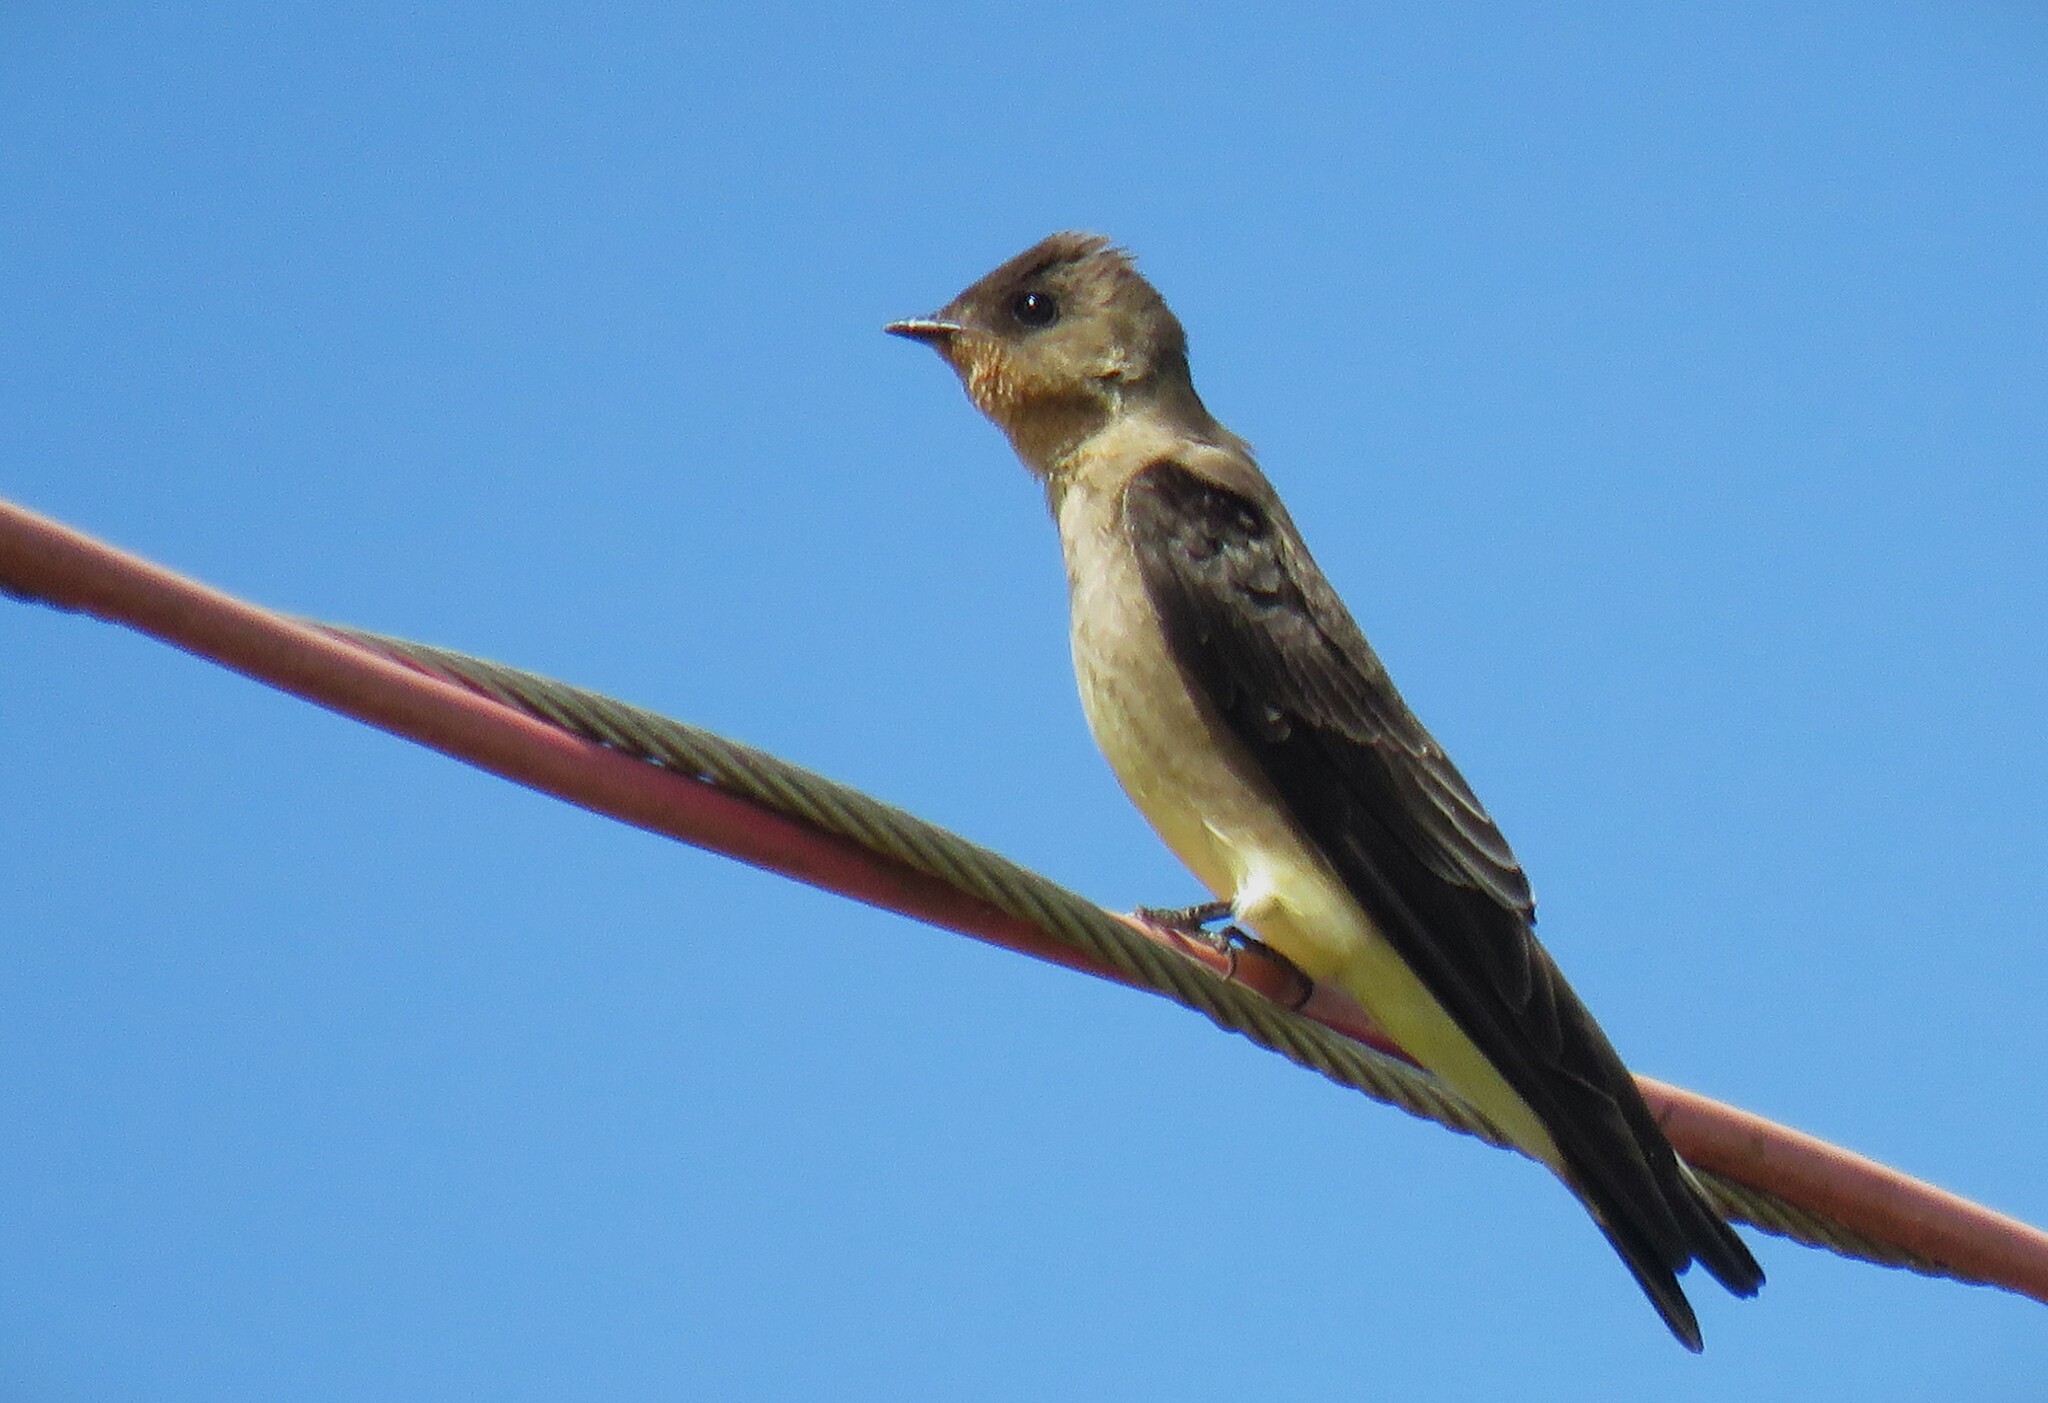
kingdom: Animalia
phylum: Chordata
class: Aves
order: Passeriformes
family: Hirundinidae
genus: Stelgidopteryx
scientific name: Stelgidopteryx ruficollis
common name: Southern rough-winged swallow
